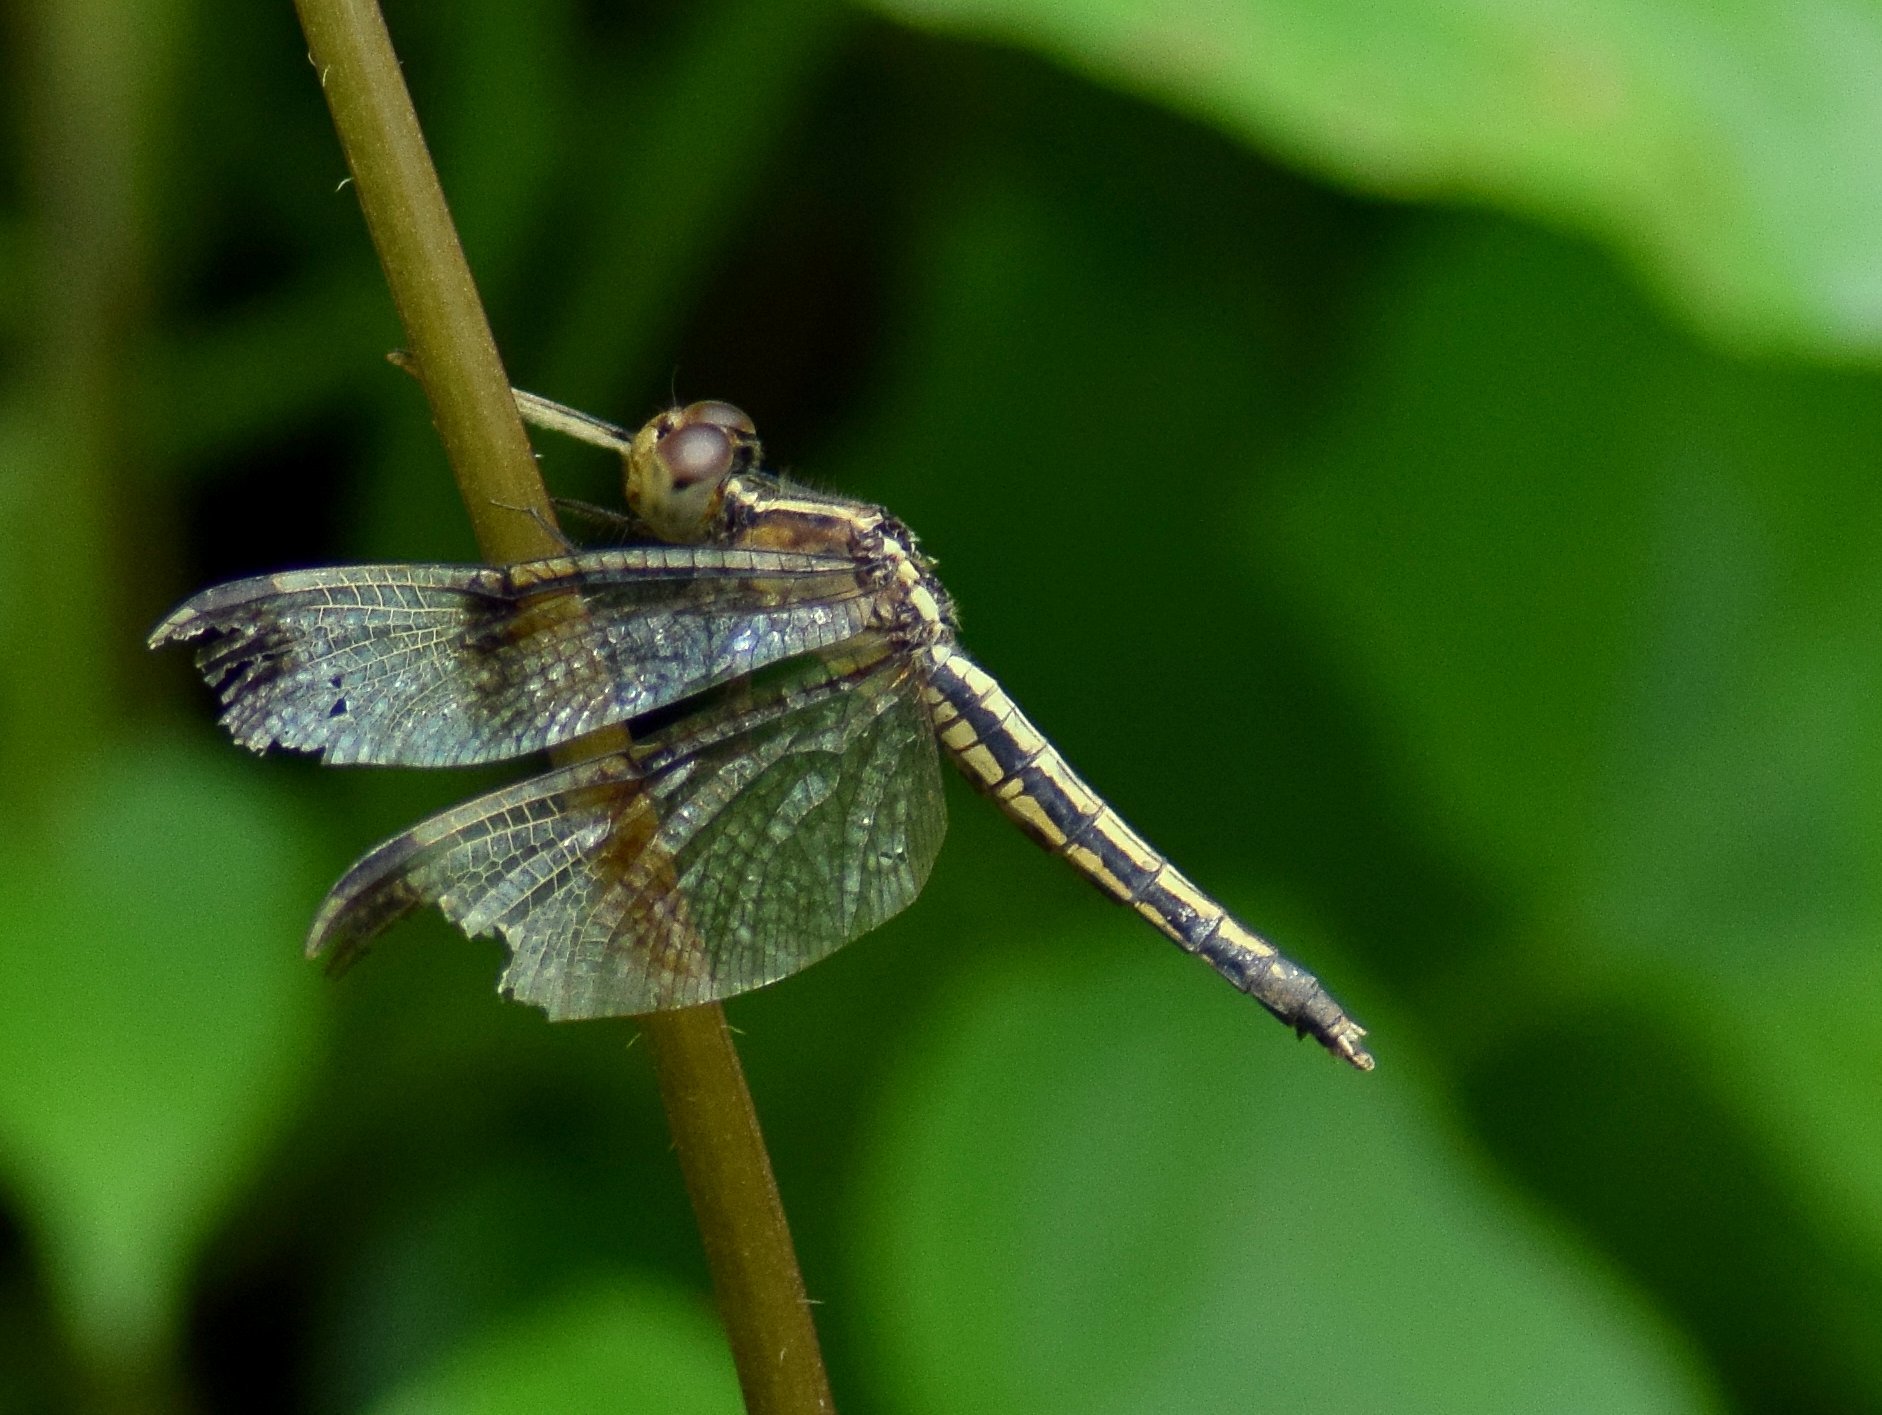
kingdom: Animalia
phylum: Arthropoda
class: Insecta
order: Odonata
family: Libellulidae
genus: Neurothemis
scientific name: Neurothemis tullia
